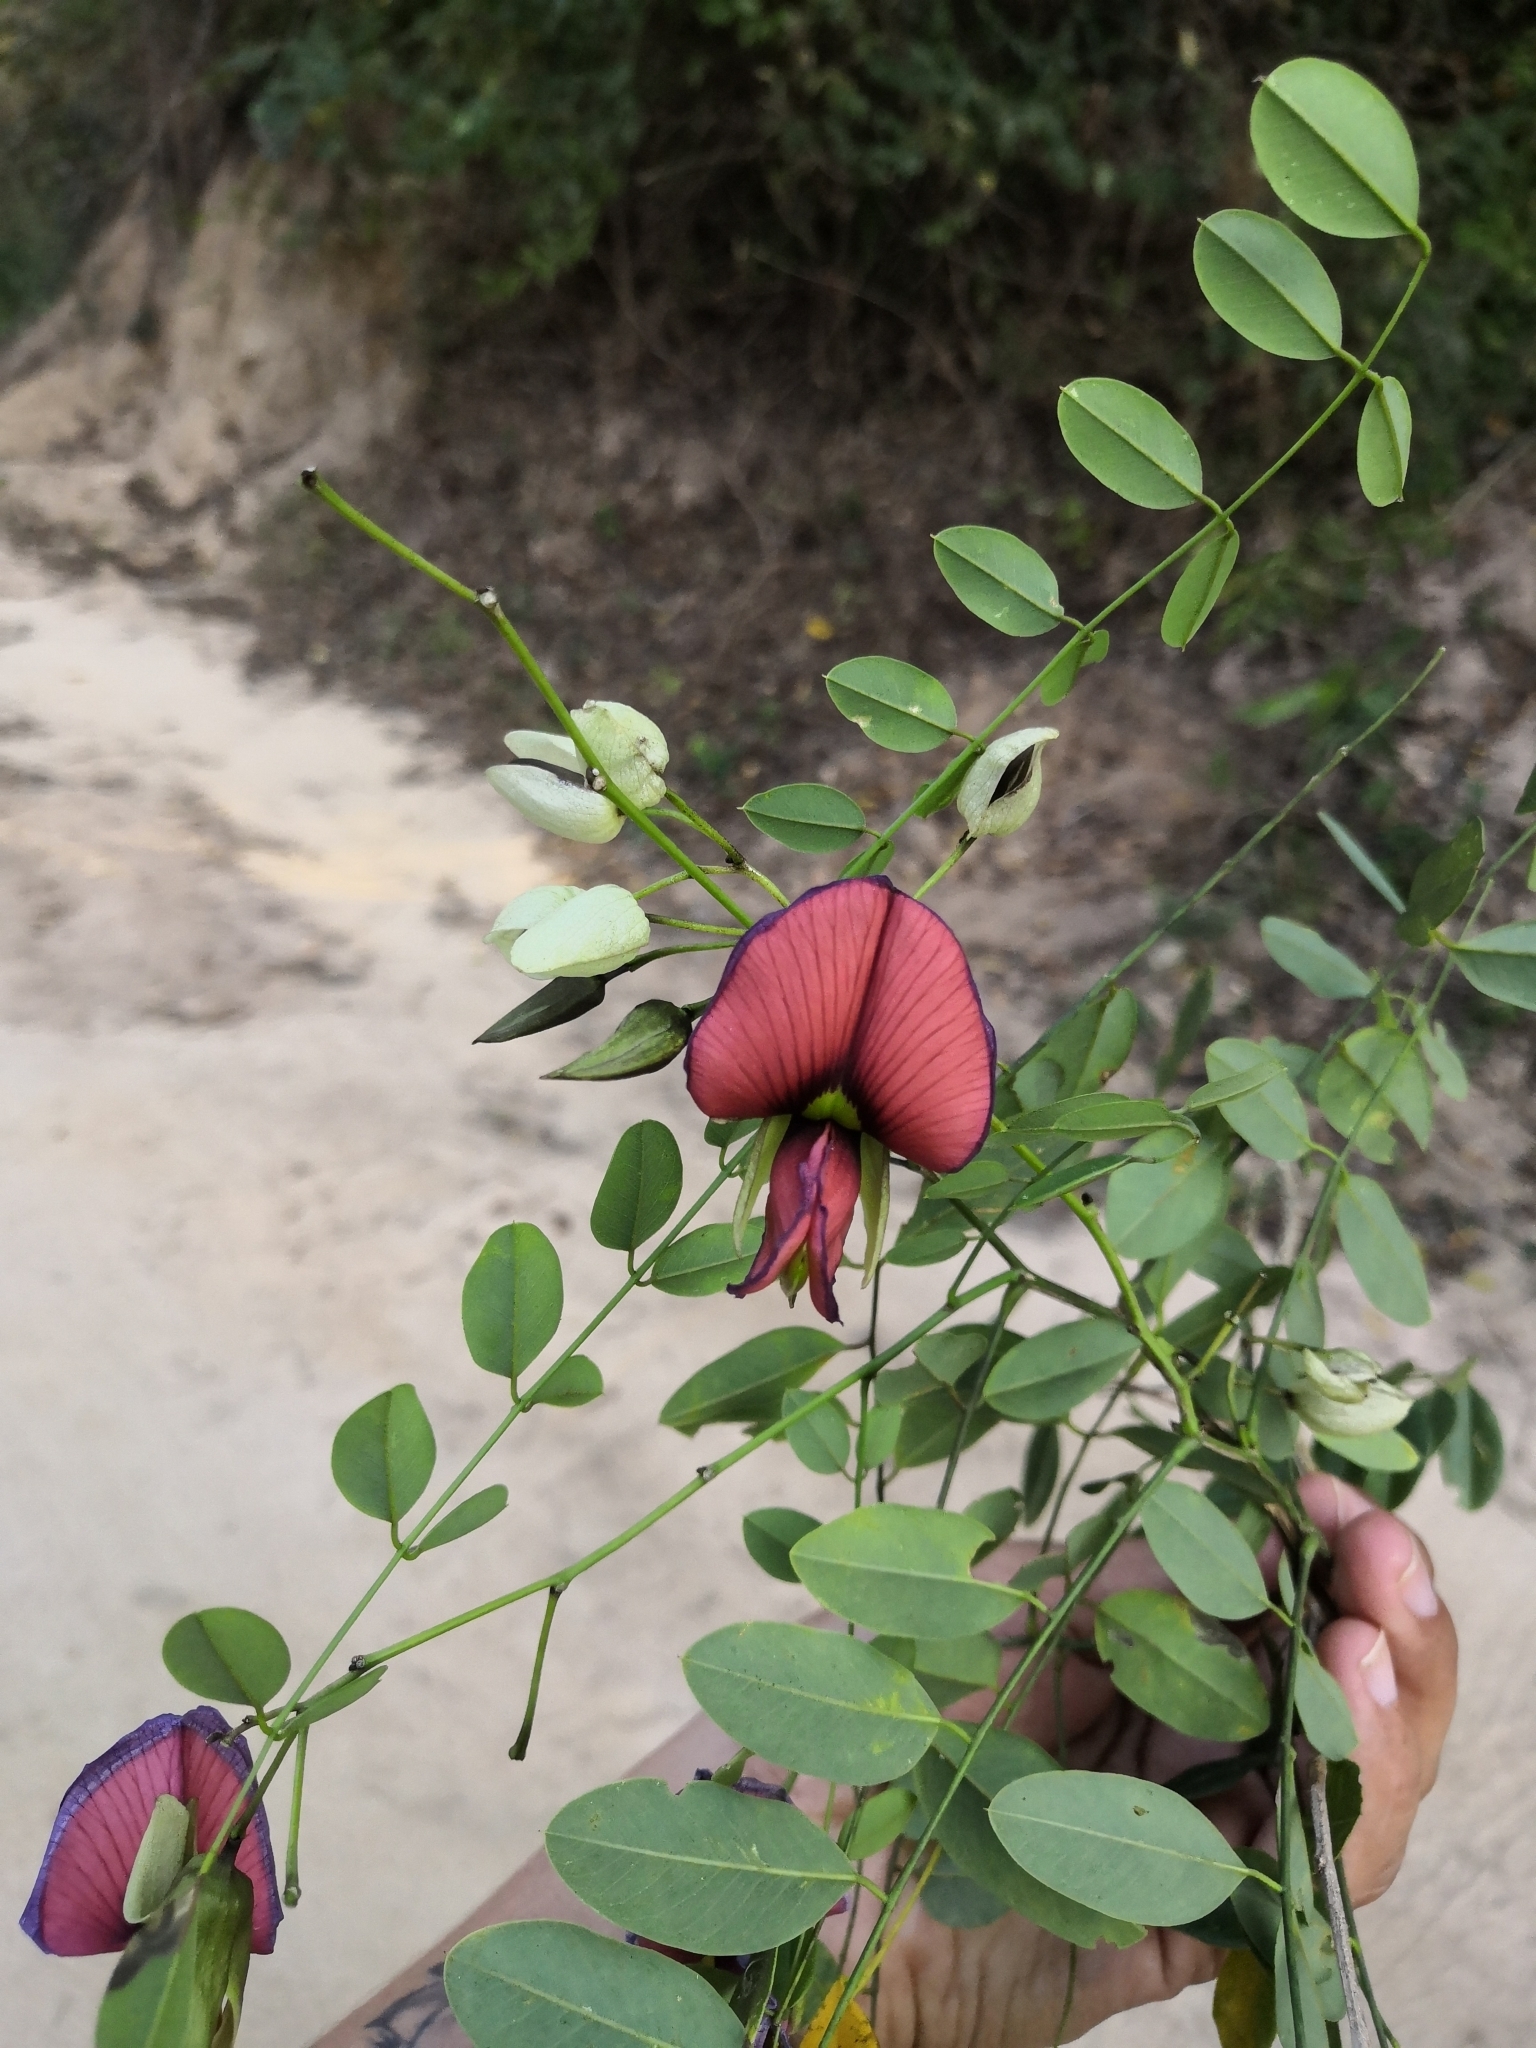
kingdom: Plantae
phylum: Tracheophyta
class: Magnoliopsida
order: Fabales
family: Fabaceae
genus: Brongniartia
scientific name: Brongniartia goldmanii
